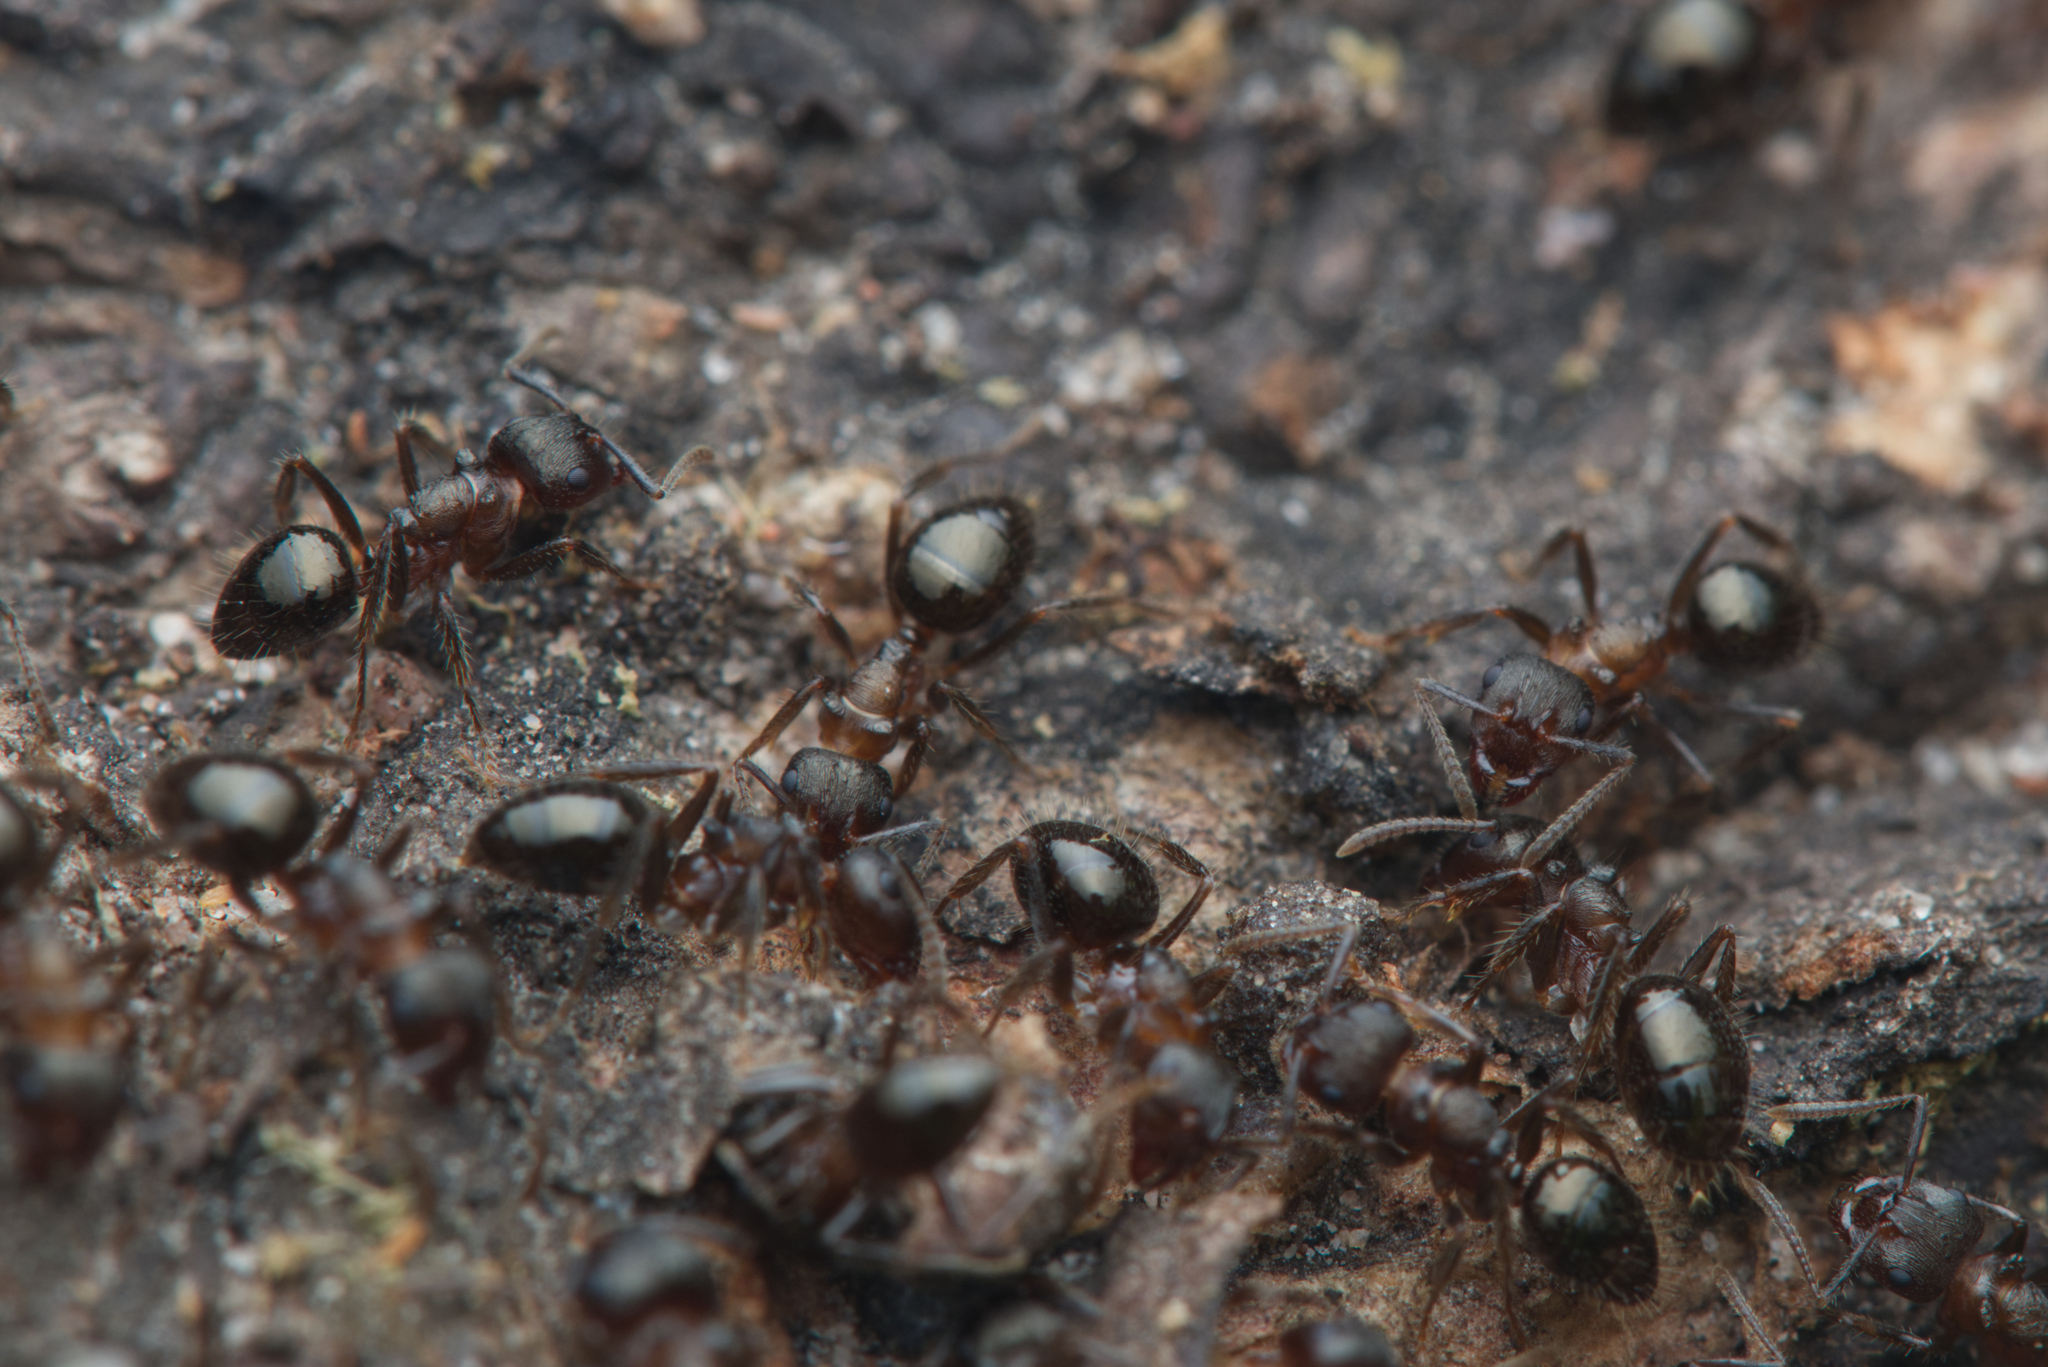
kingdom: Animalia
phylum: Arthropoda
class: Insecta
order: Hymenoptera
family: Formicidae
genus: Notoncus
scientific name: Notoncus ectatommoides
